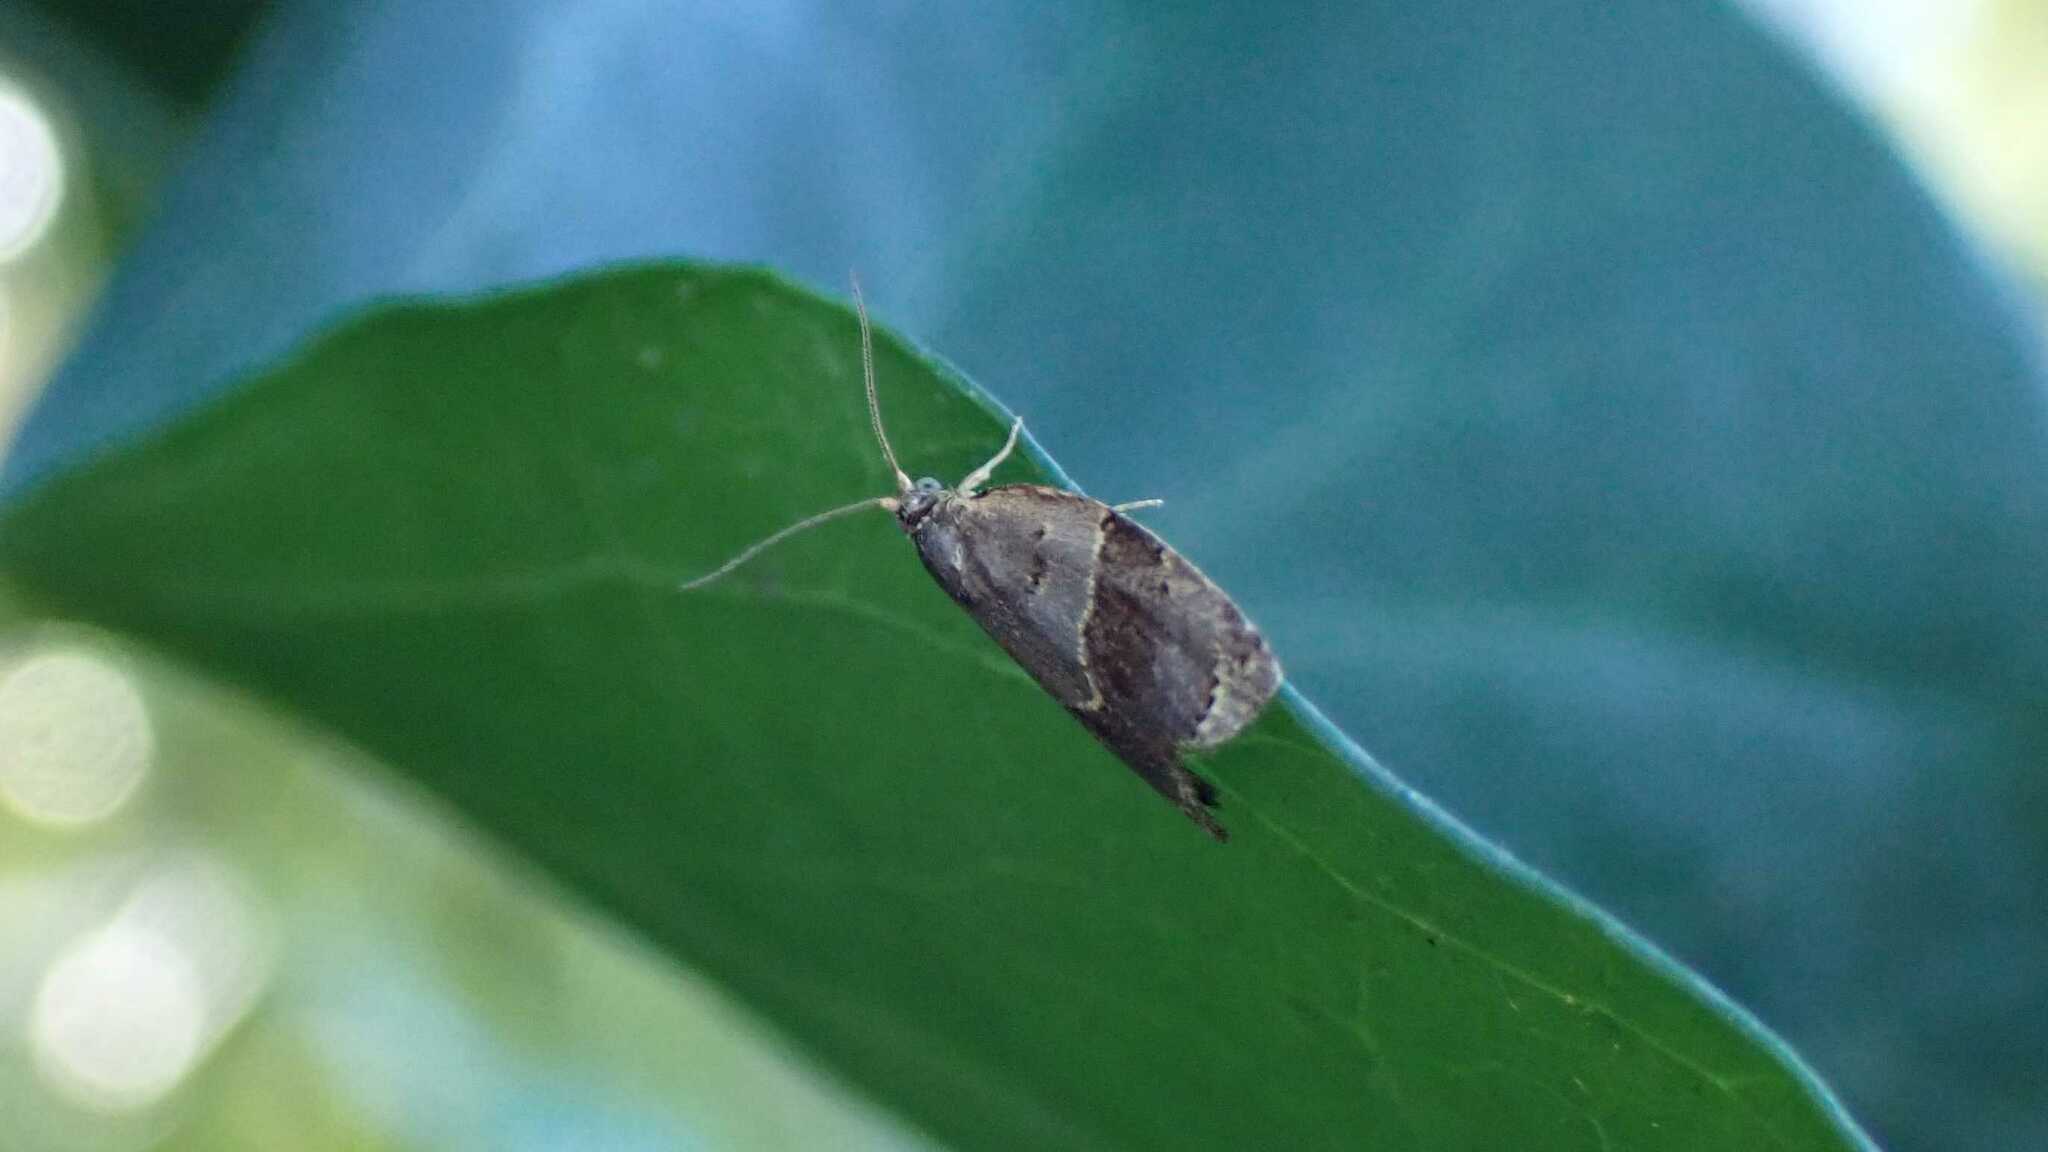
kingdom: Animalia
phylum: Arthropoda
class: Insecta
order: Lepidoptera
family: Tortricidae
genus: Clepsis
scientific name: Clepsis dumicolana
